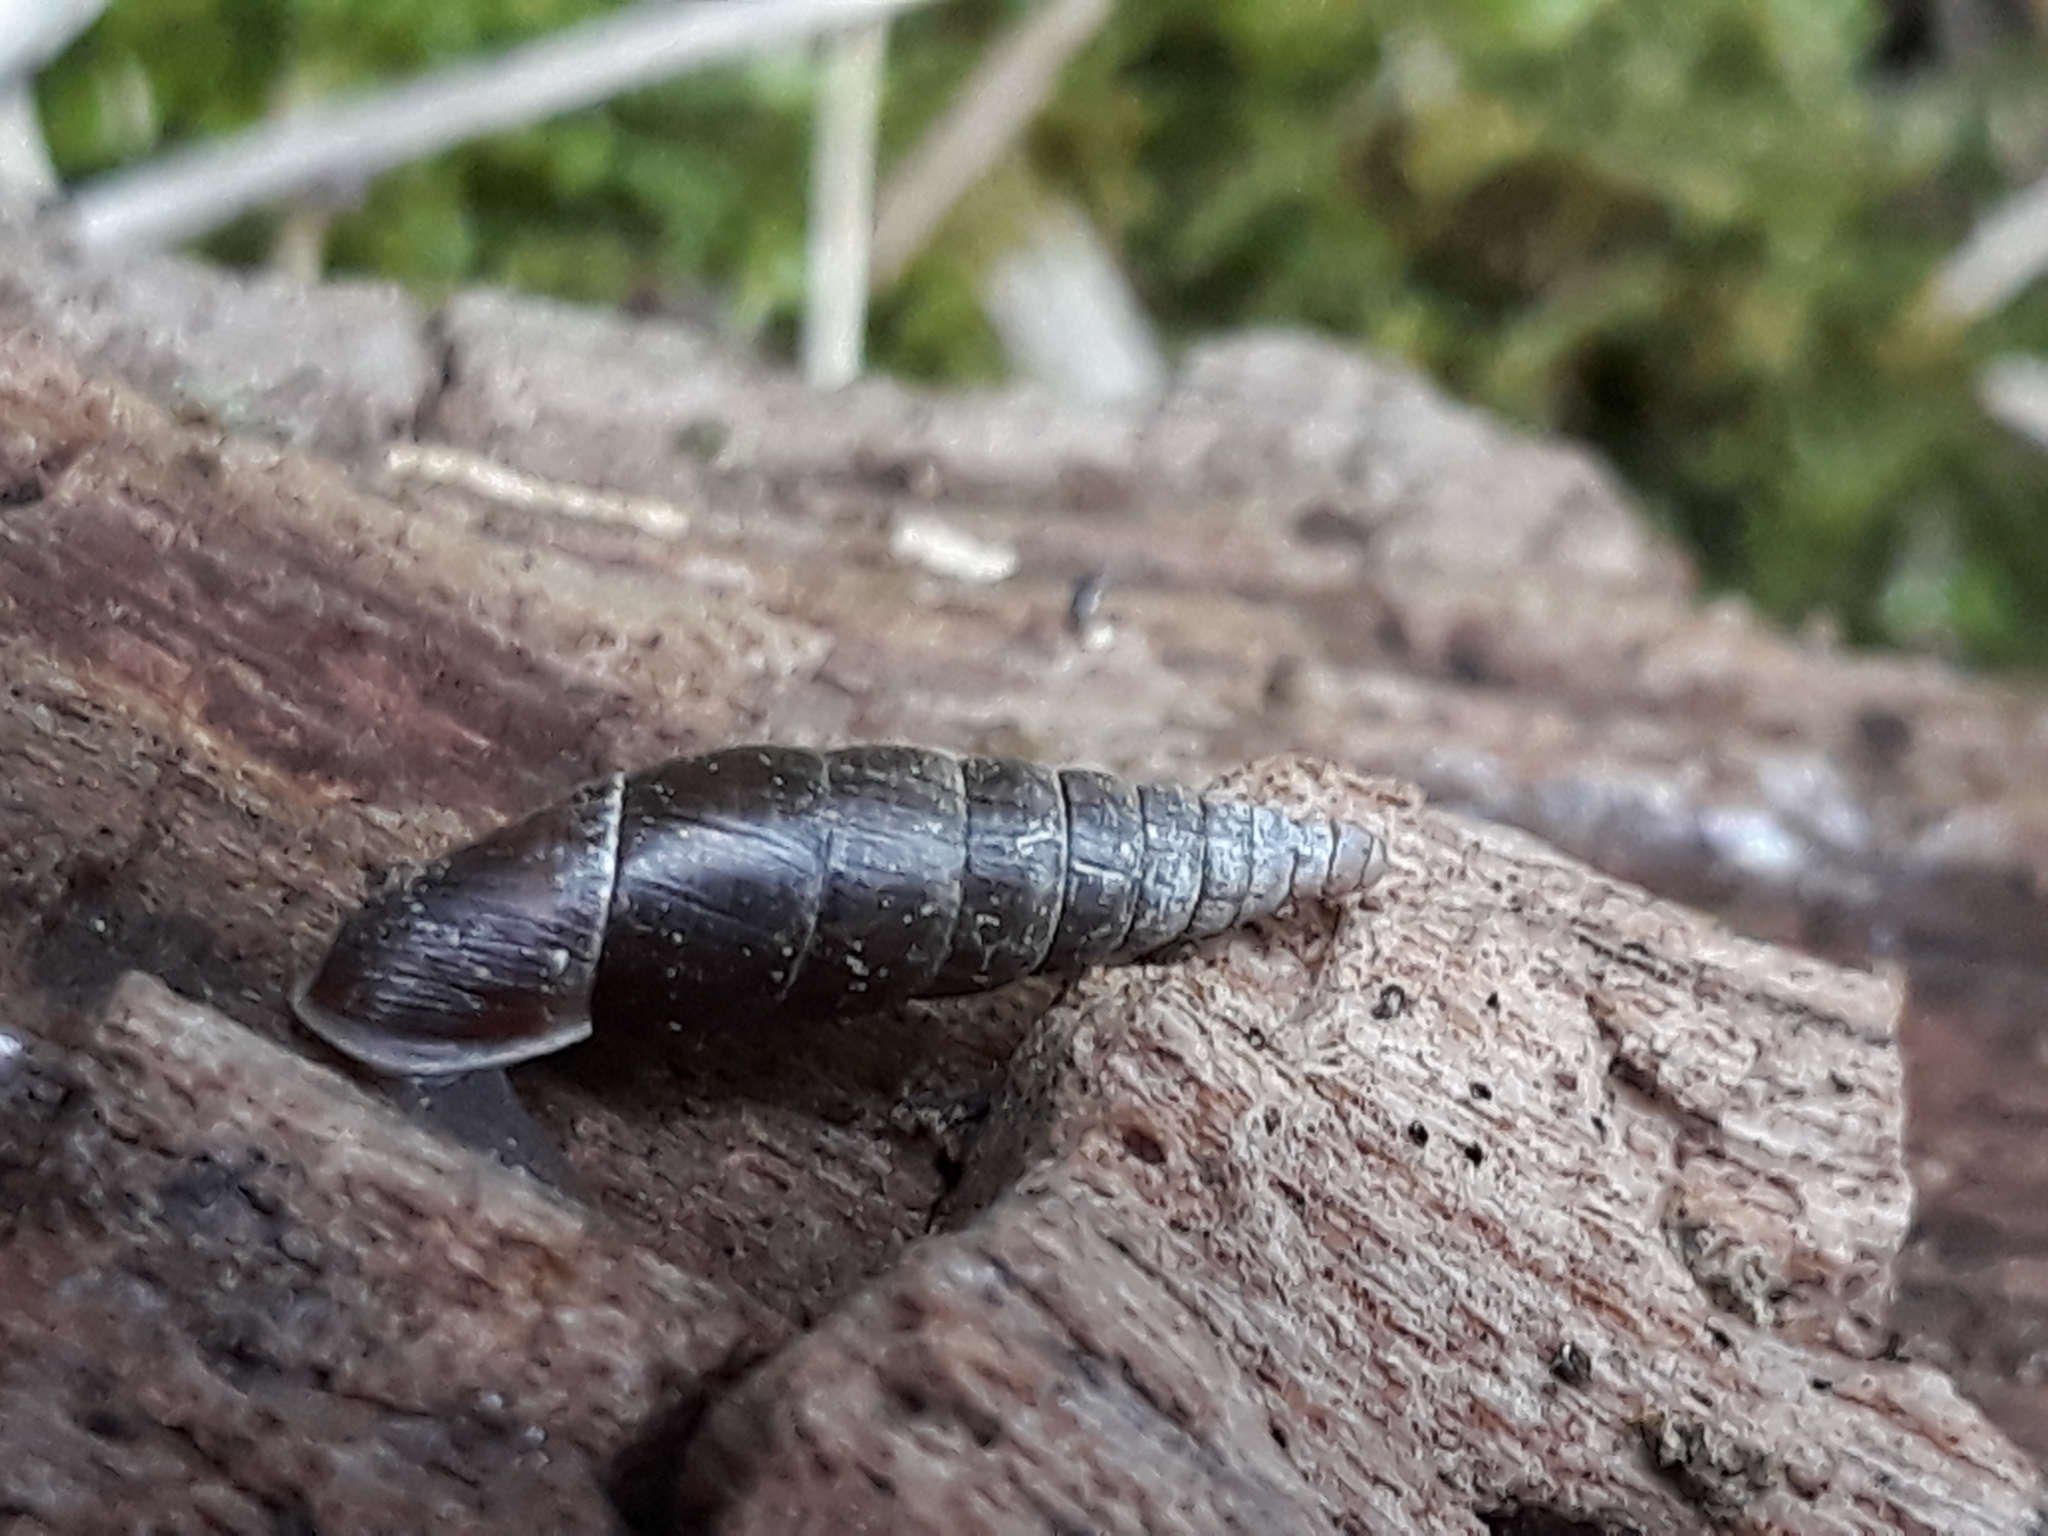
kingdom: Animalia
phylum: Mollusca
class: Gastropoda
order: Stylommatophora
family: Clausiliidae
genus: Cochlodina
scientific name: Cochlodina laminata
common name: Plaited door snail
